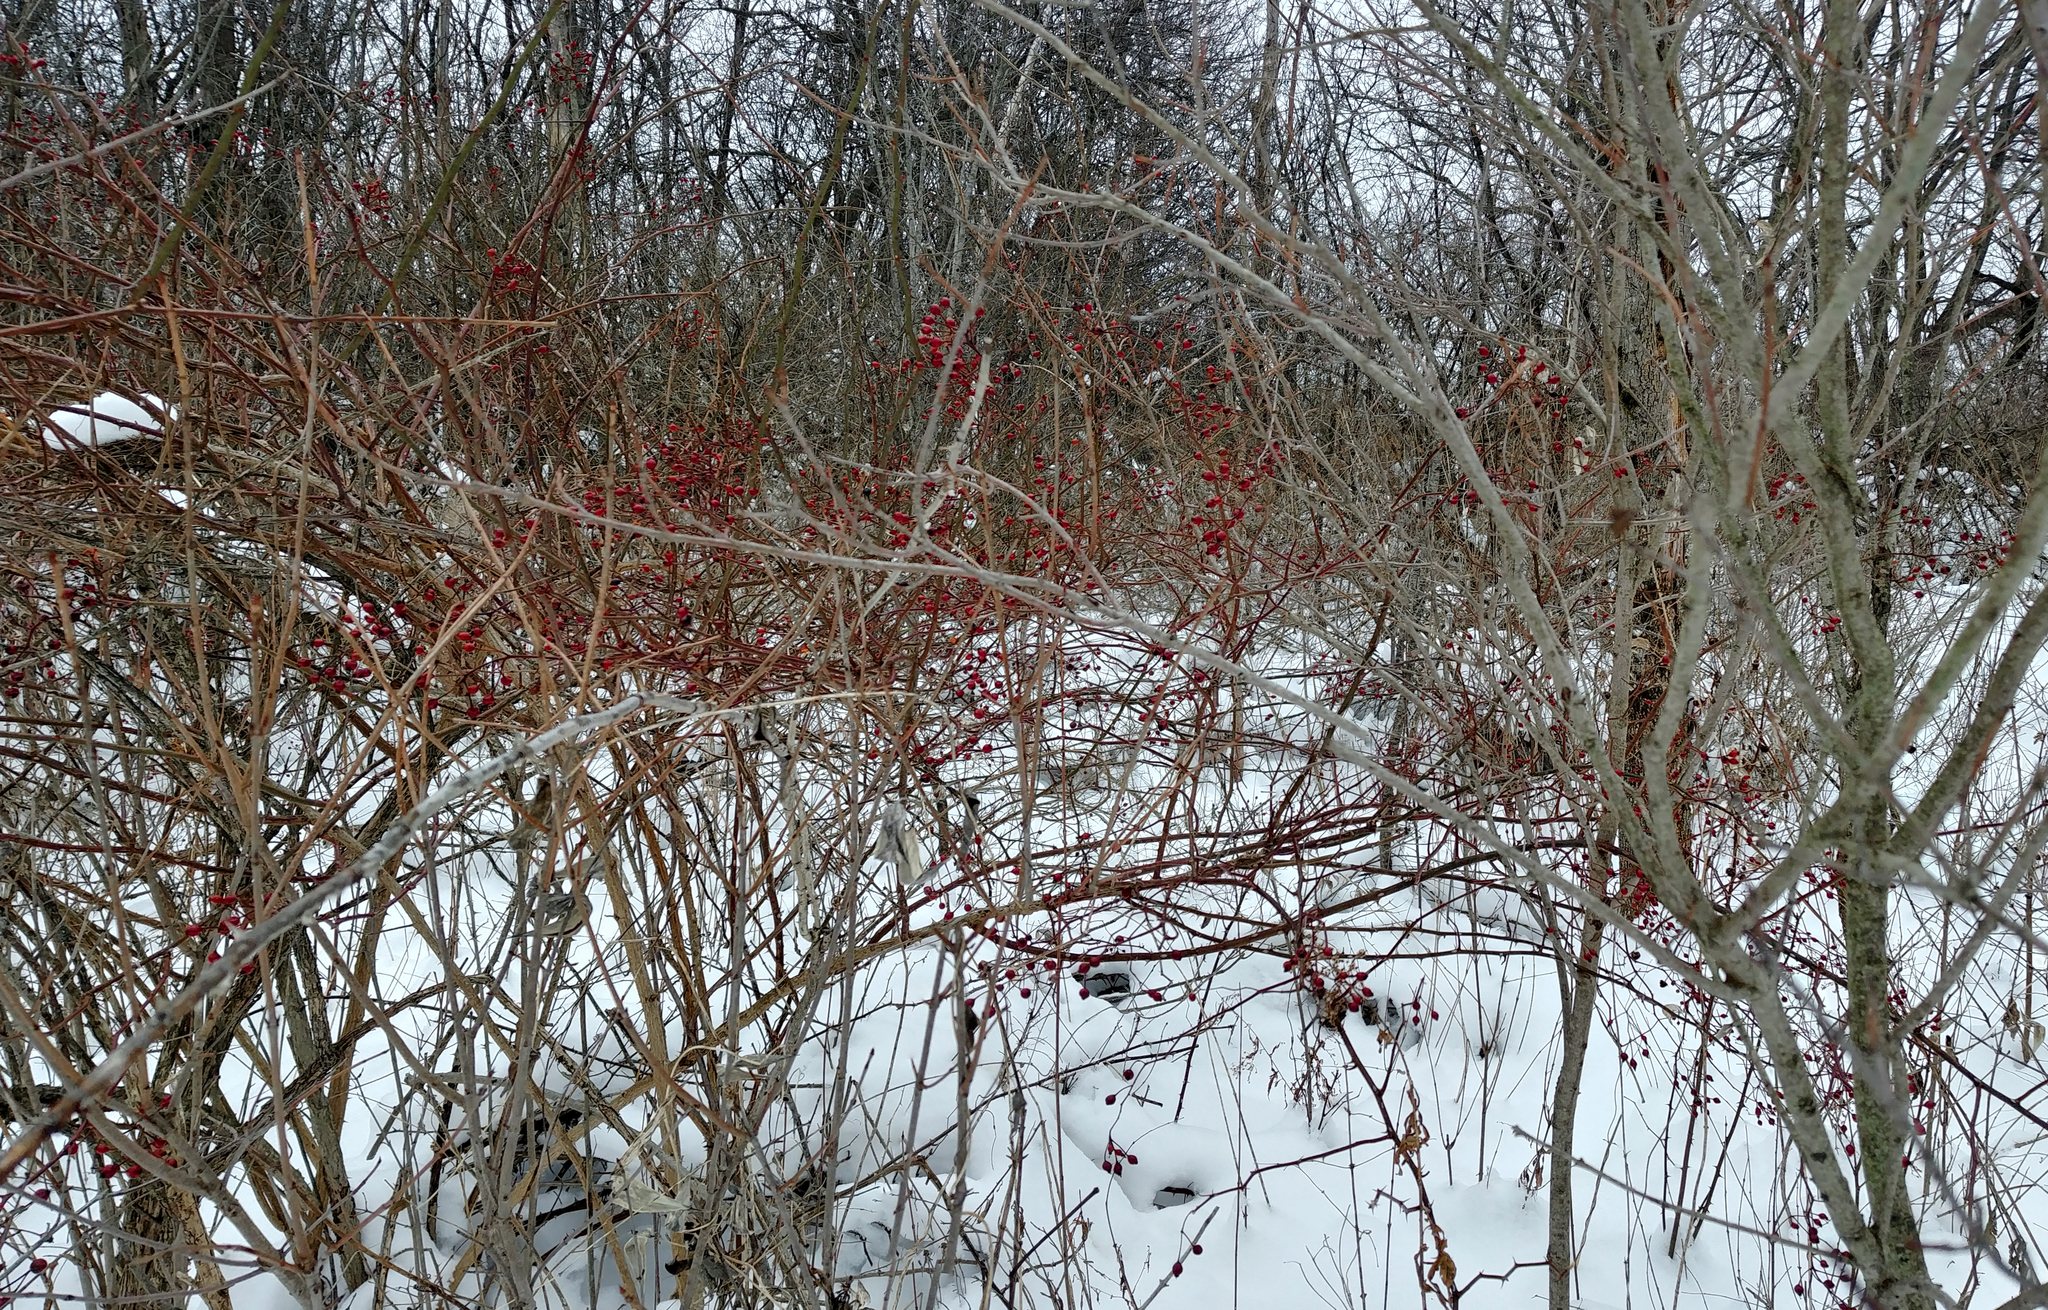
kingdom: Plantae
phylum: Tracheophyta
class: Magnoliopsida
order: Rosales
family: Rosaceae
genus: Rosa
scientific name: Rosa multiflora
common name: Multiflora rose
